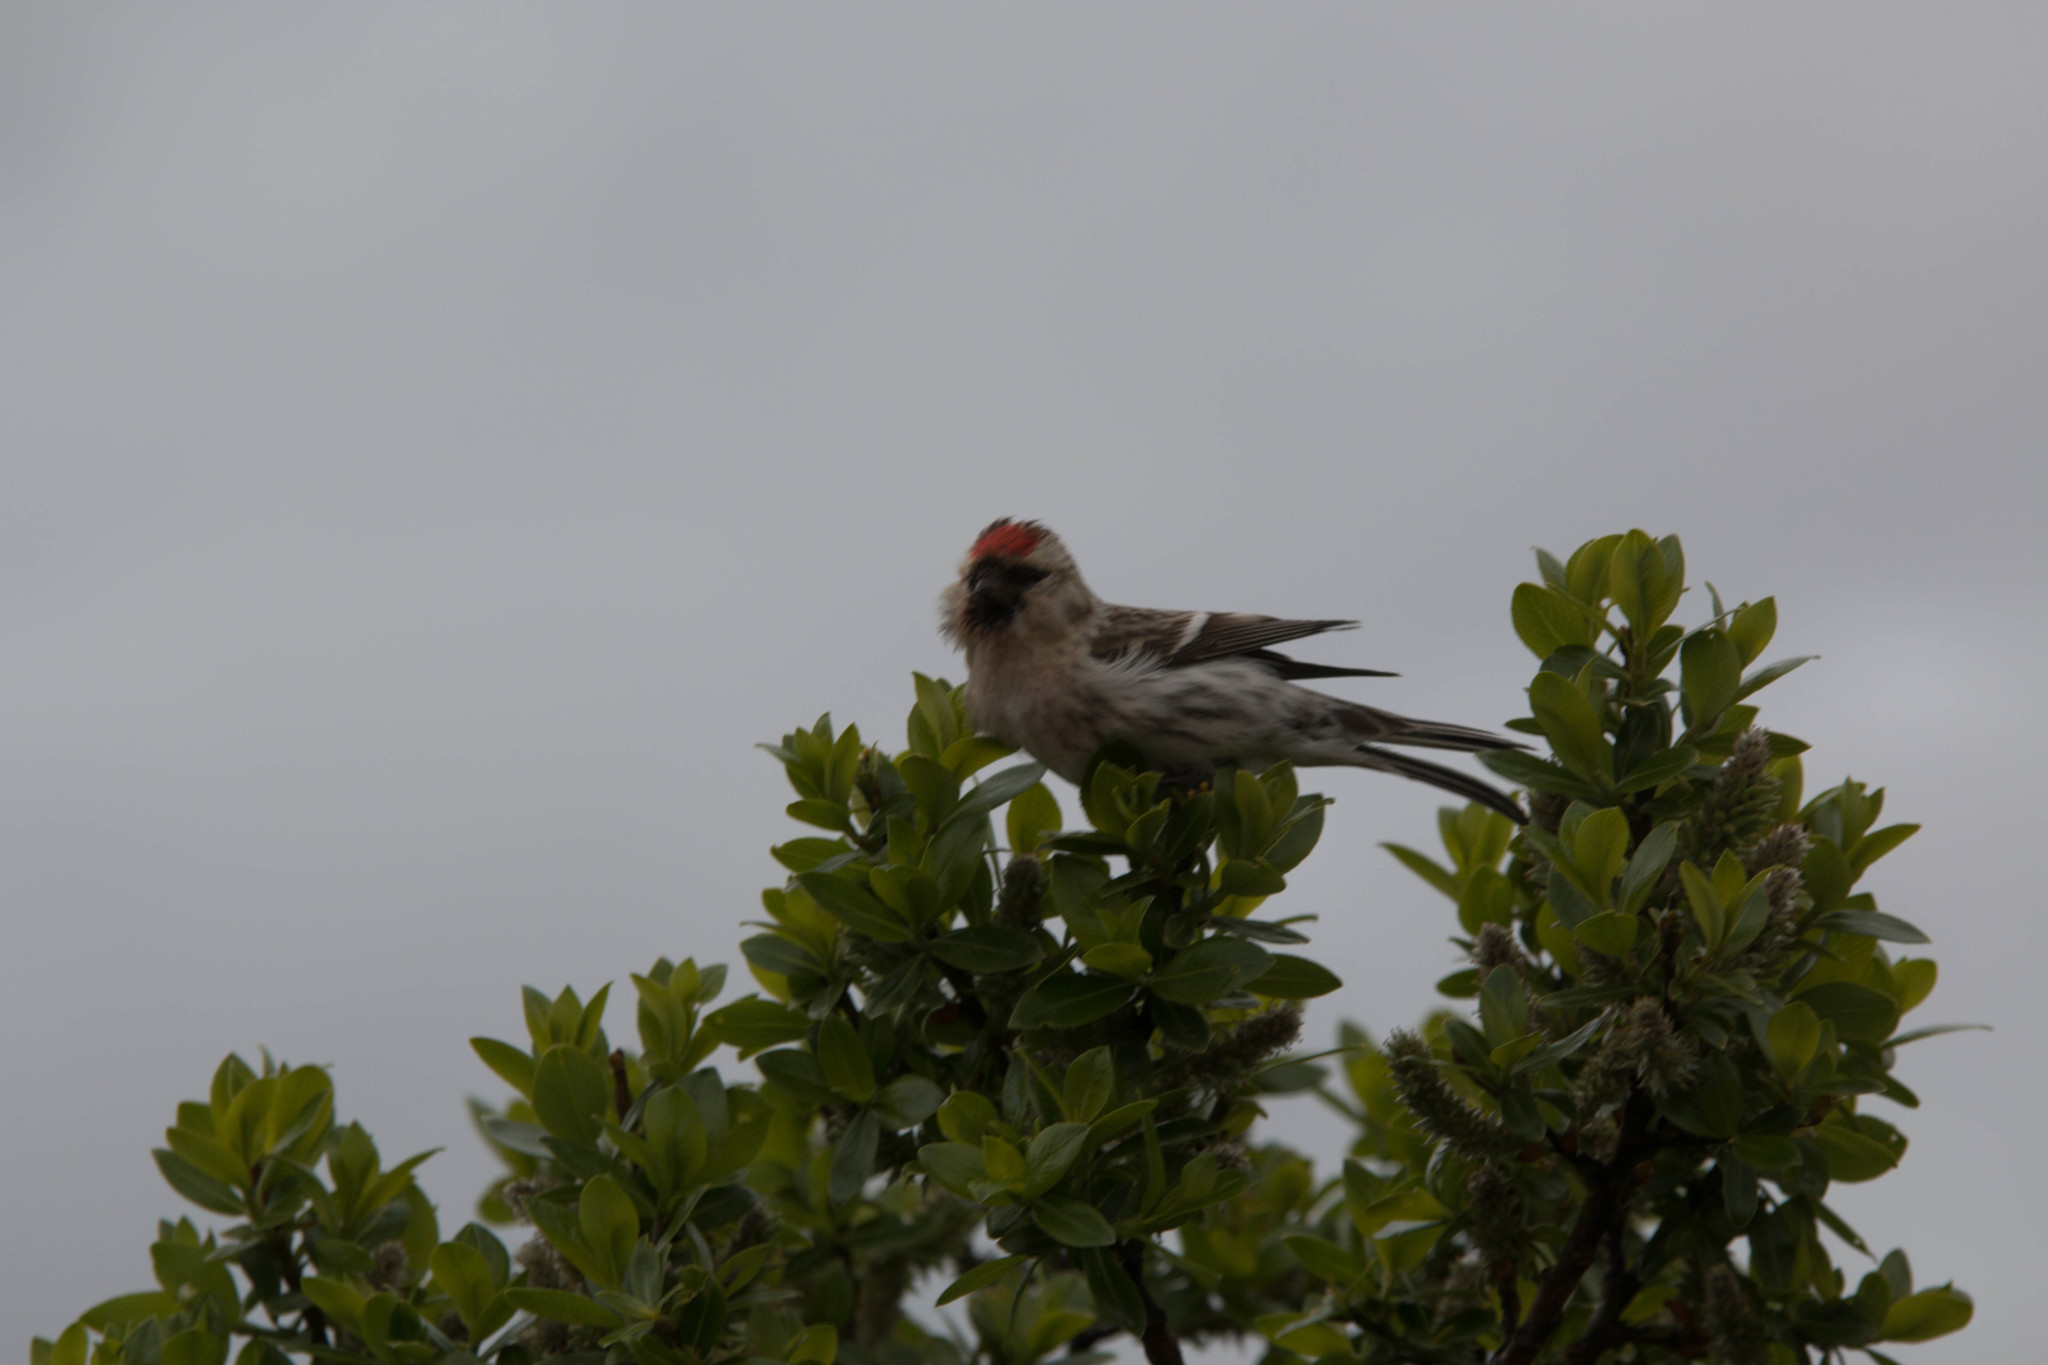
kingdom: Animalia
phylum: Chordata
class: Aves
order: Passeriformes
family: Fringillidae
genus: Acanthis
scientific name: Acanthis flammea
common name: Common redpoll
